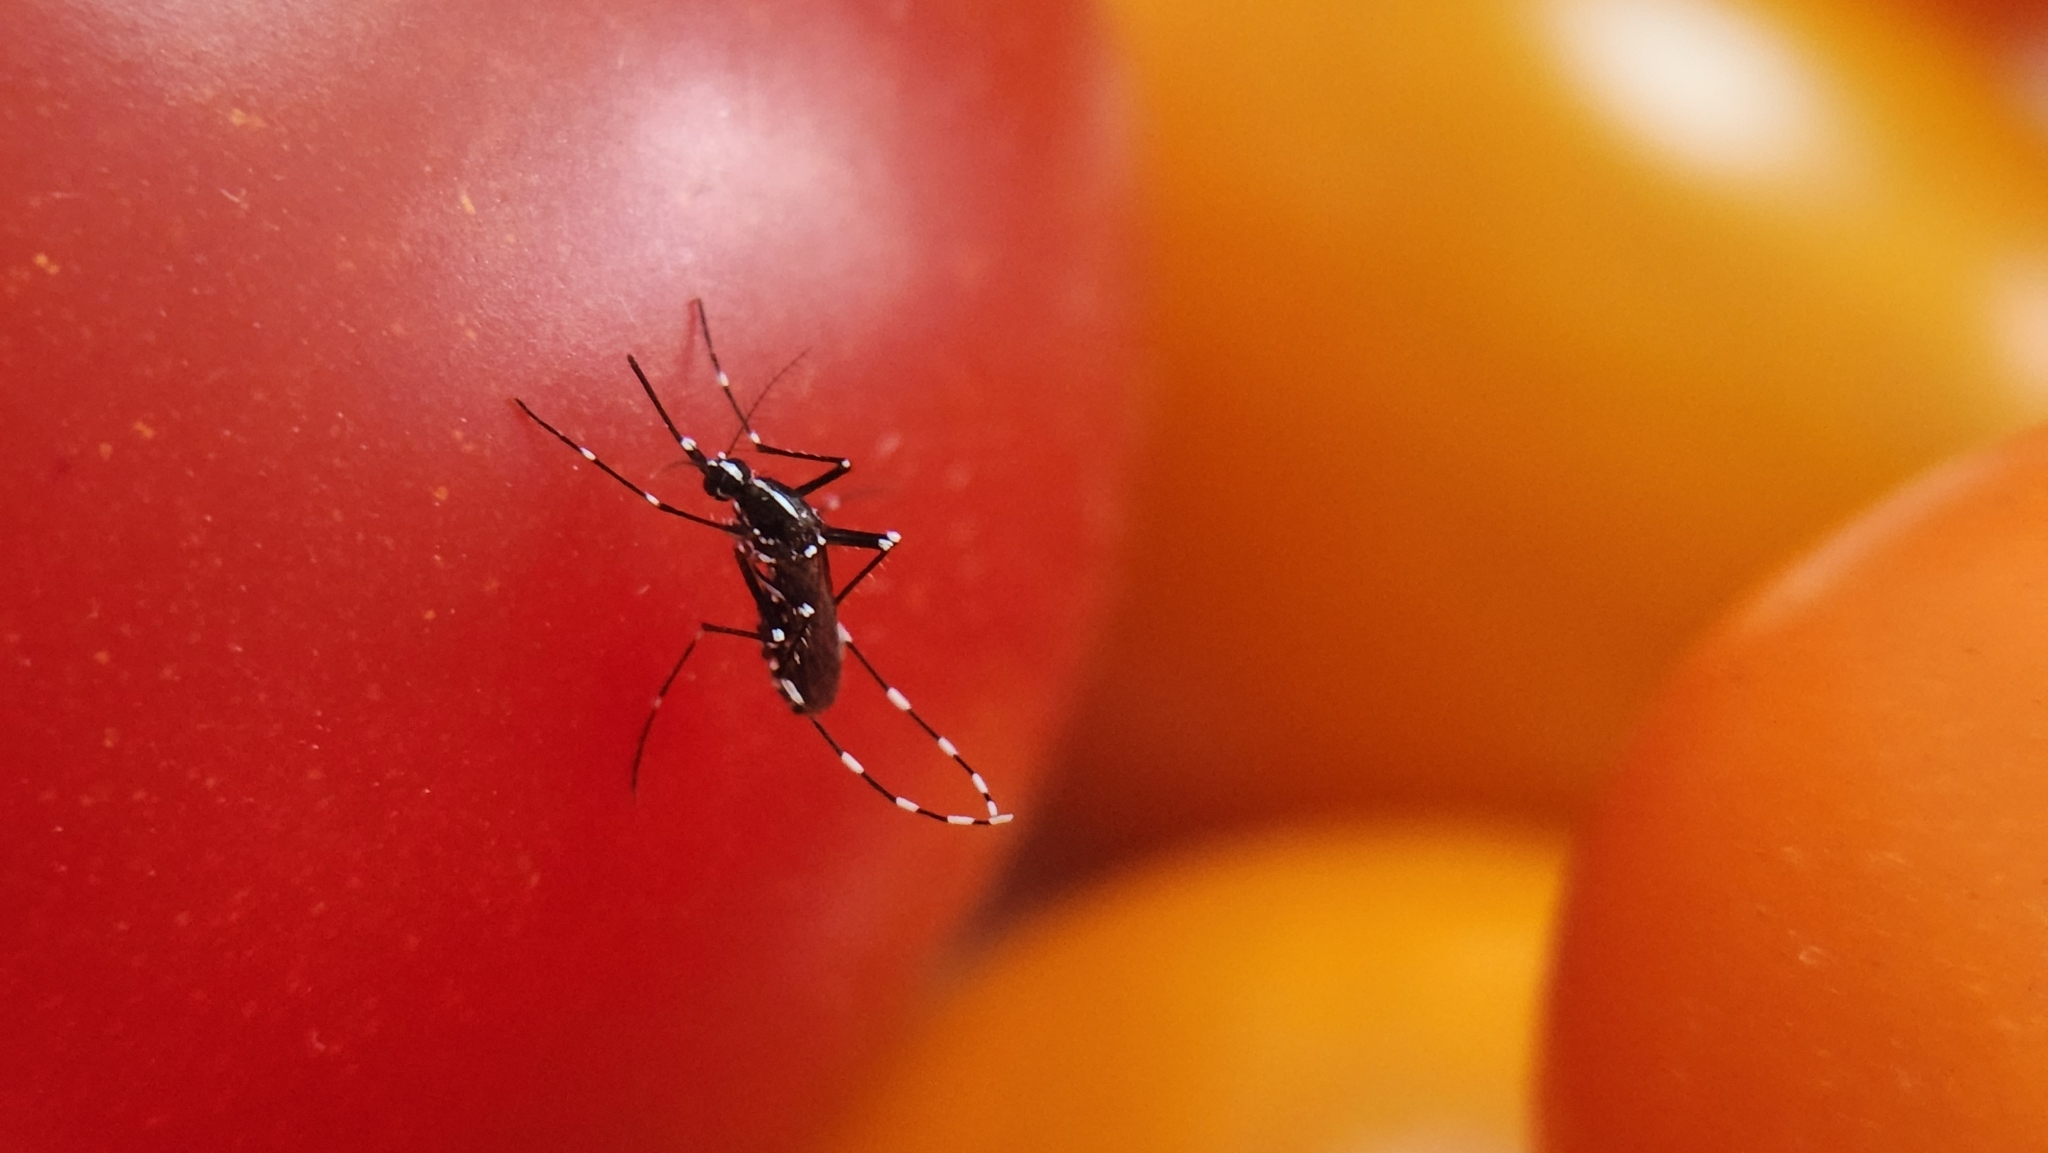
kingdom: Animalia
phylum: Arthropoda
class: Insecta
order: Diptera
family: Culicidae
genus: Aedes
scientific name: Aedes albopictus
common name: Tiger mosquito
